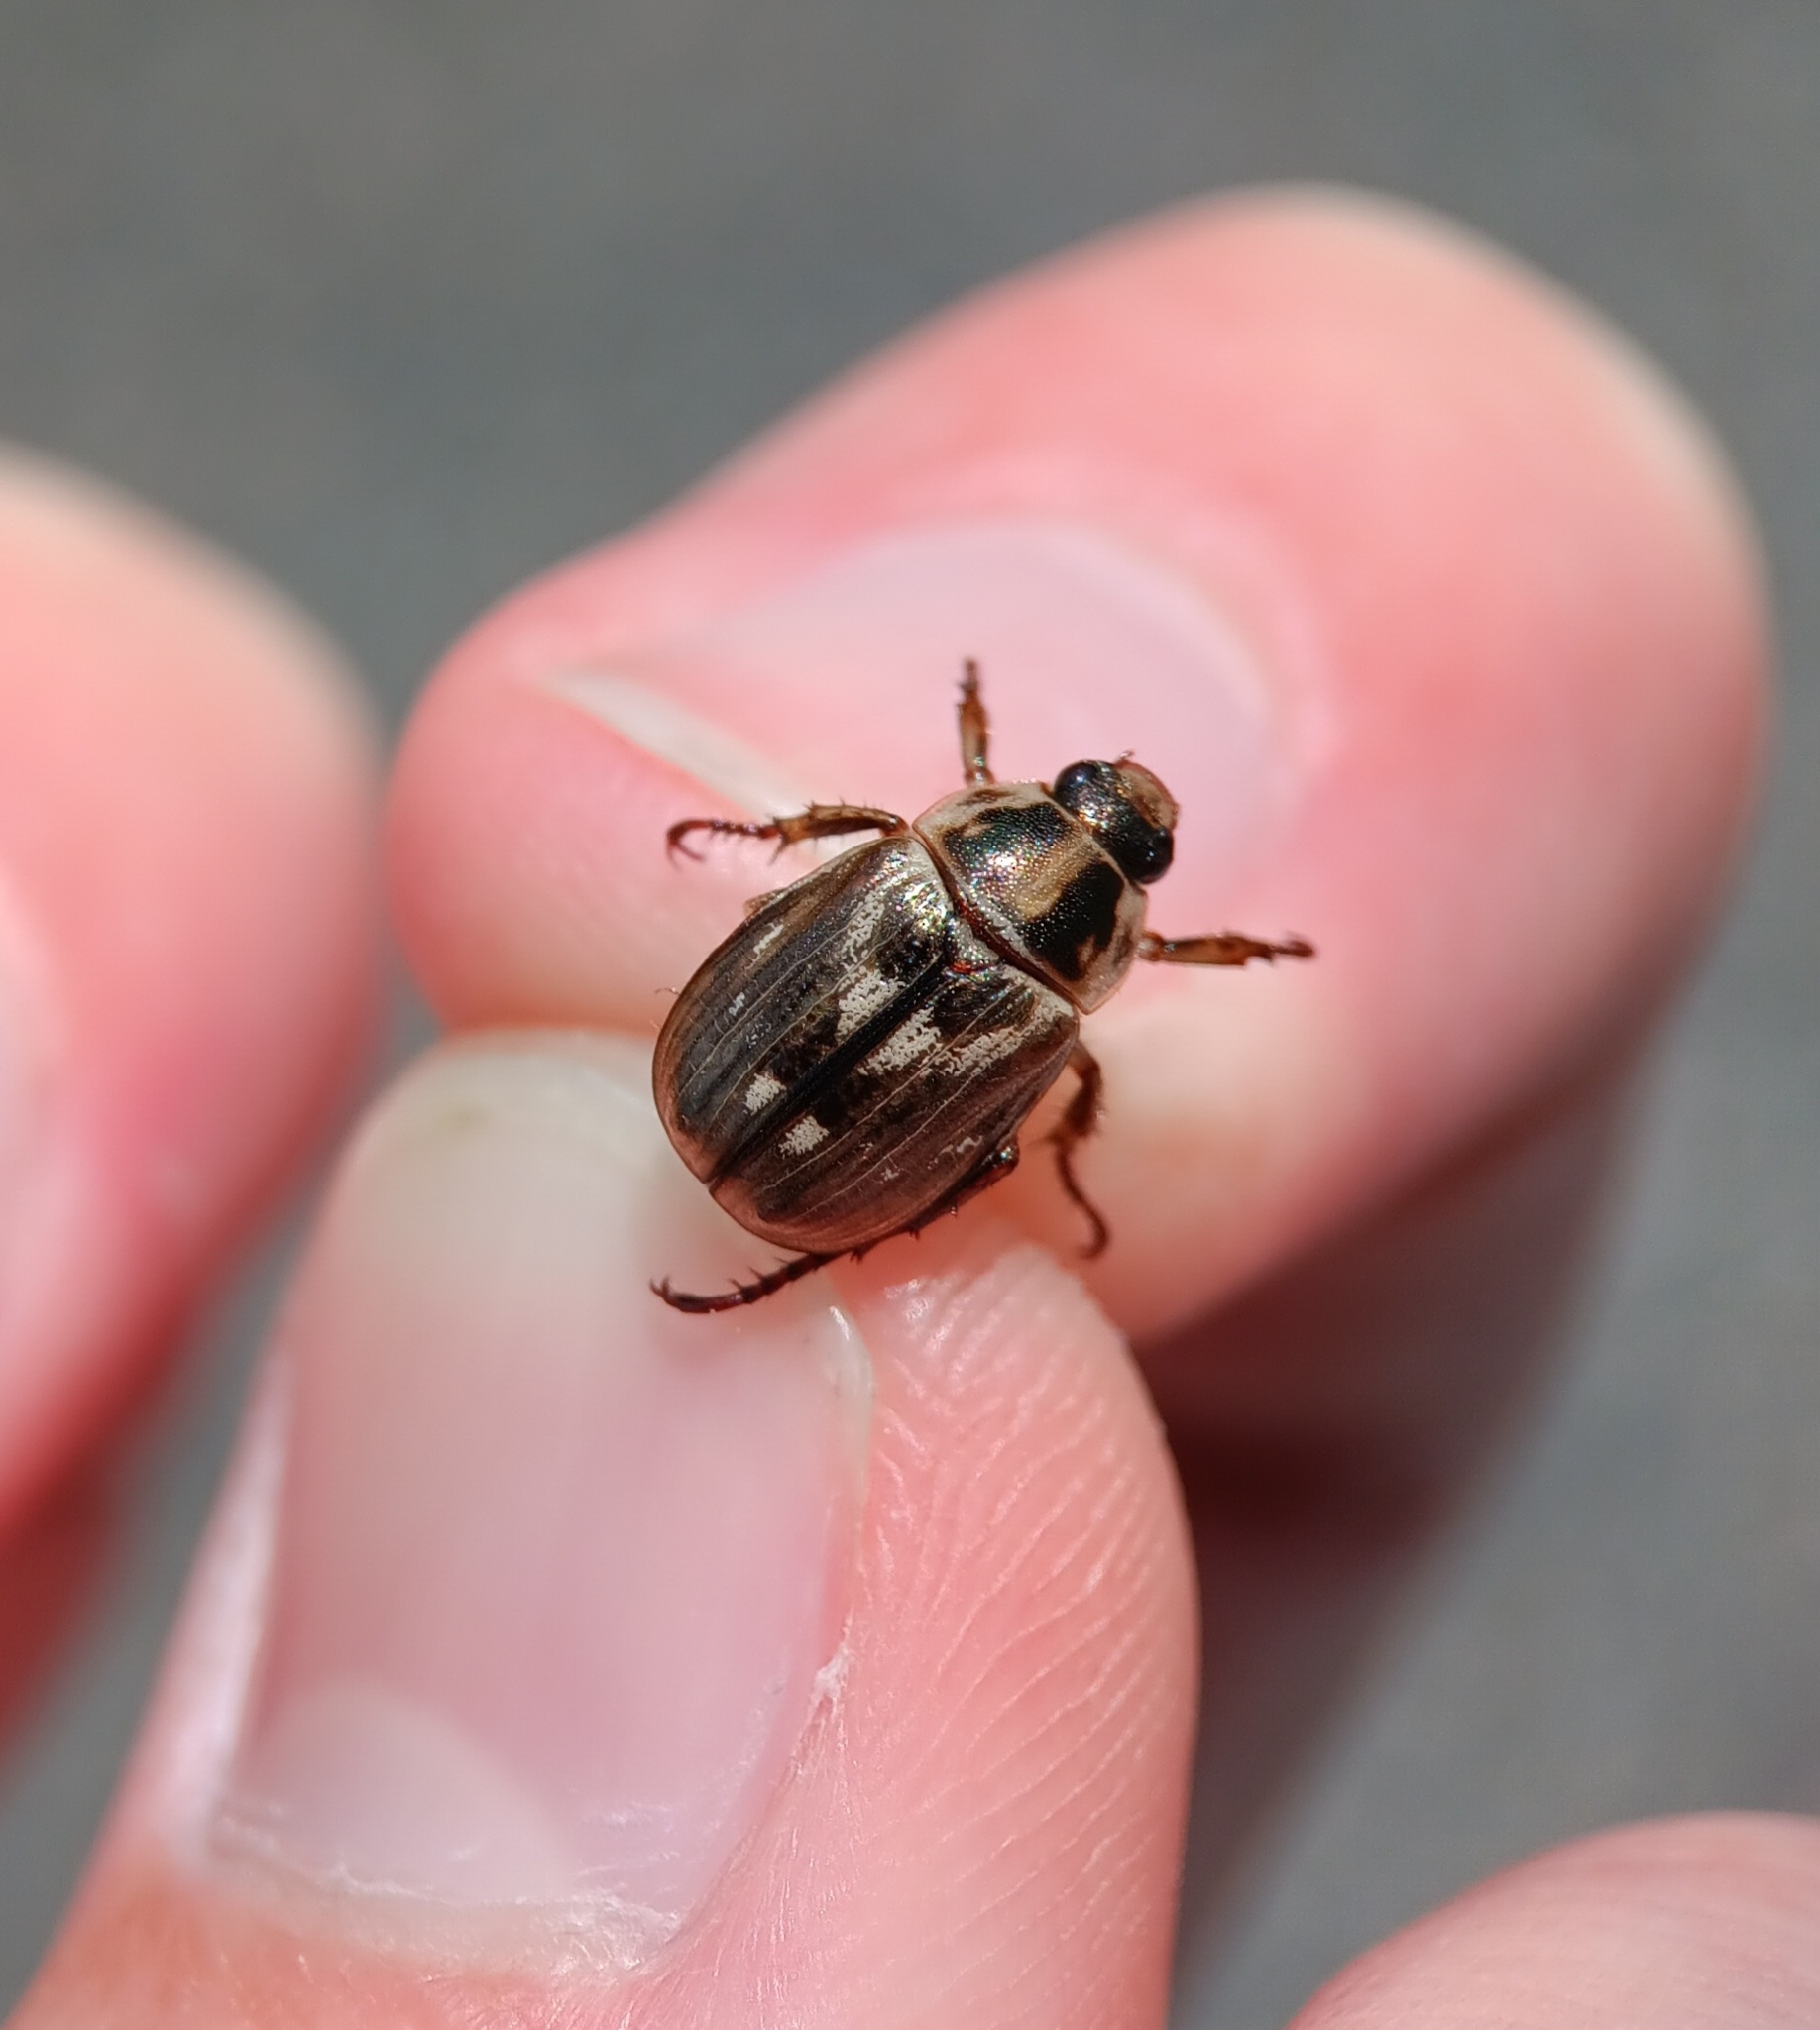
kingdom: Animalia
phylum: Arthropoda
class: Insecta
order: Coleoptera
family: Scarabaeidae
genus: Exomala
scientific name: Exomala orientalis
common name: Oriental beetle
